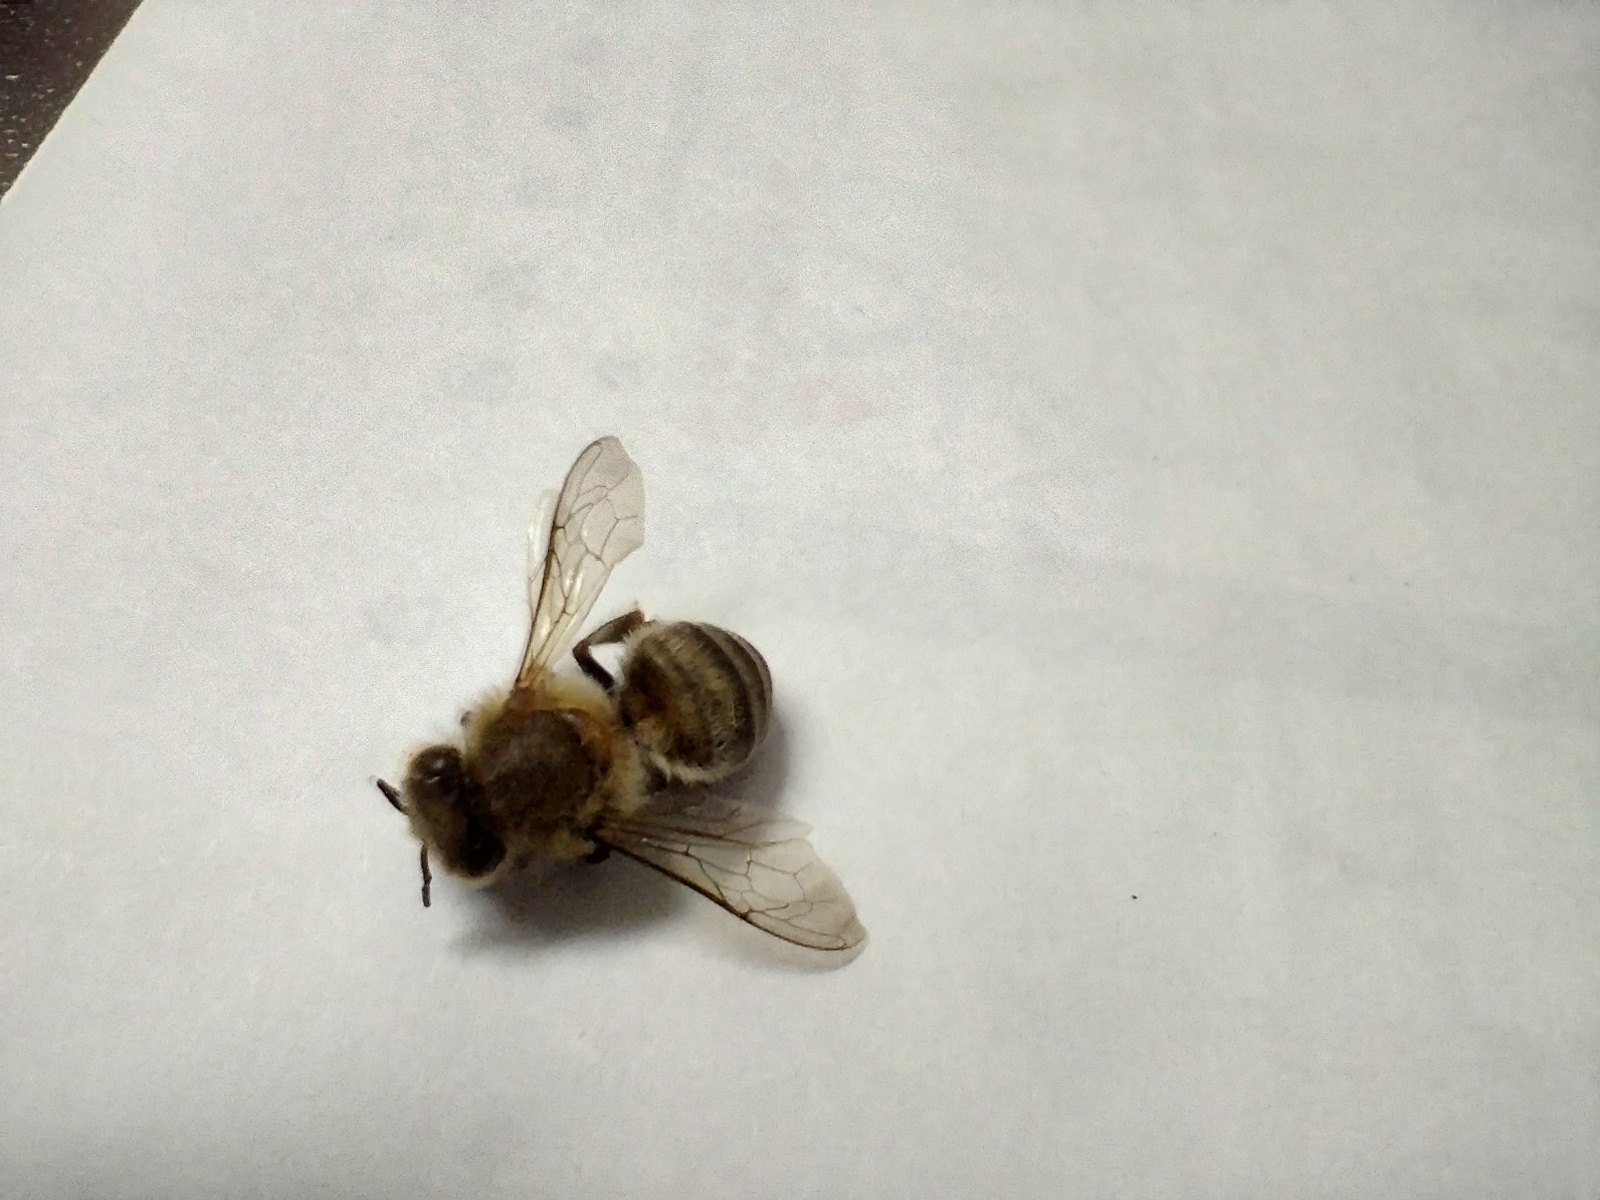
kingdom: Animalia
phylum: Arthropoda
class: Insecta
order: Hymenoptera
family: Apidae
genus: Apis
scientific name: Apis mellifera
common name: Honey bee
